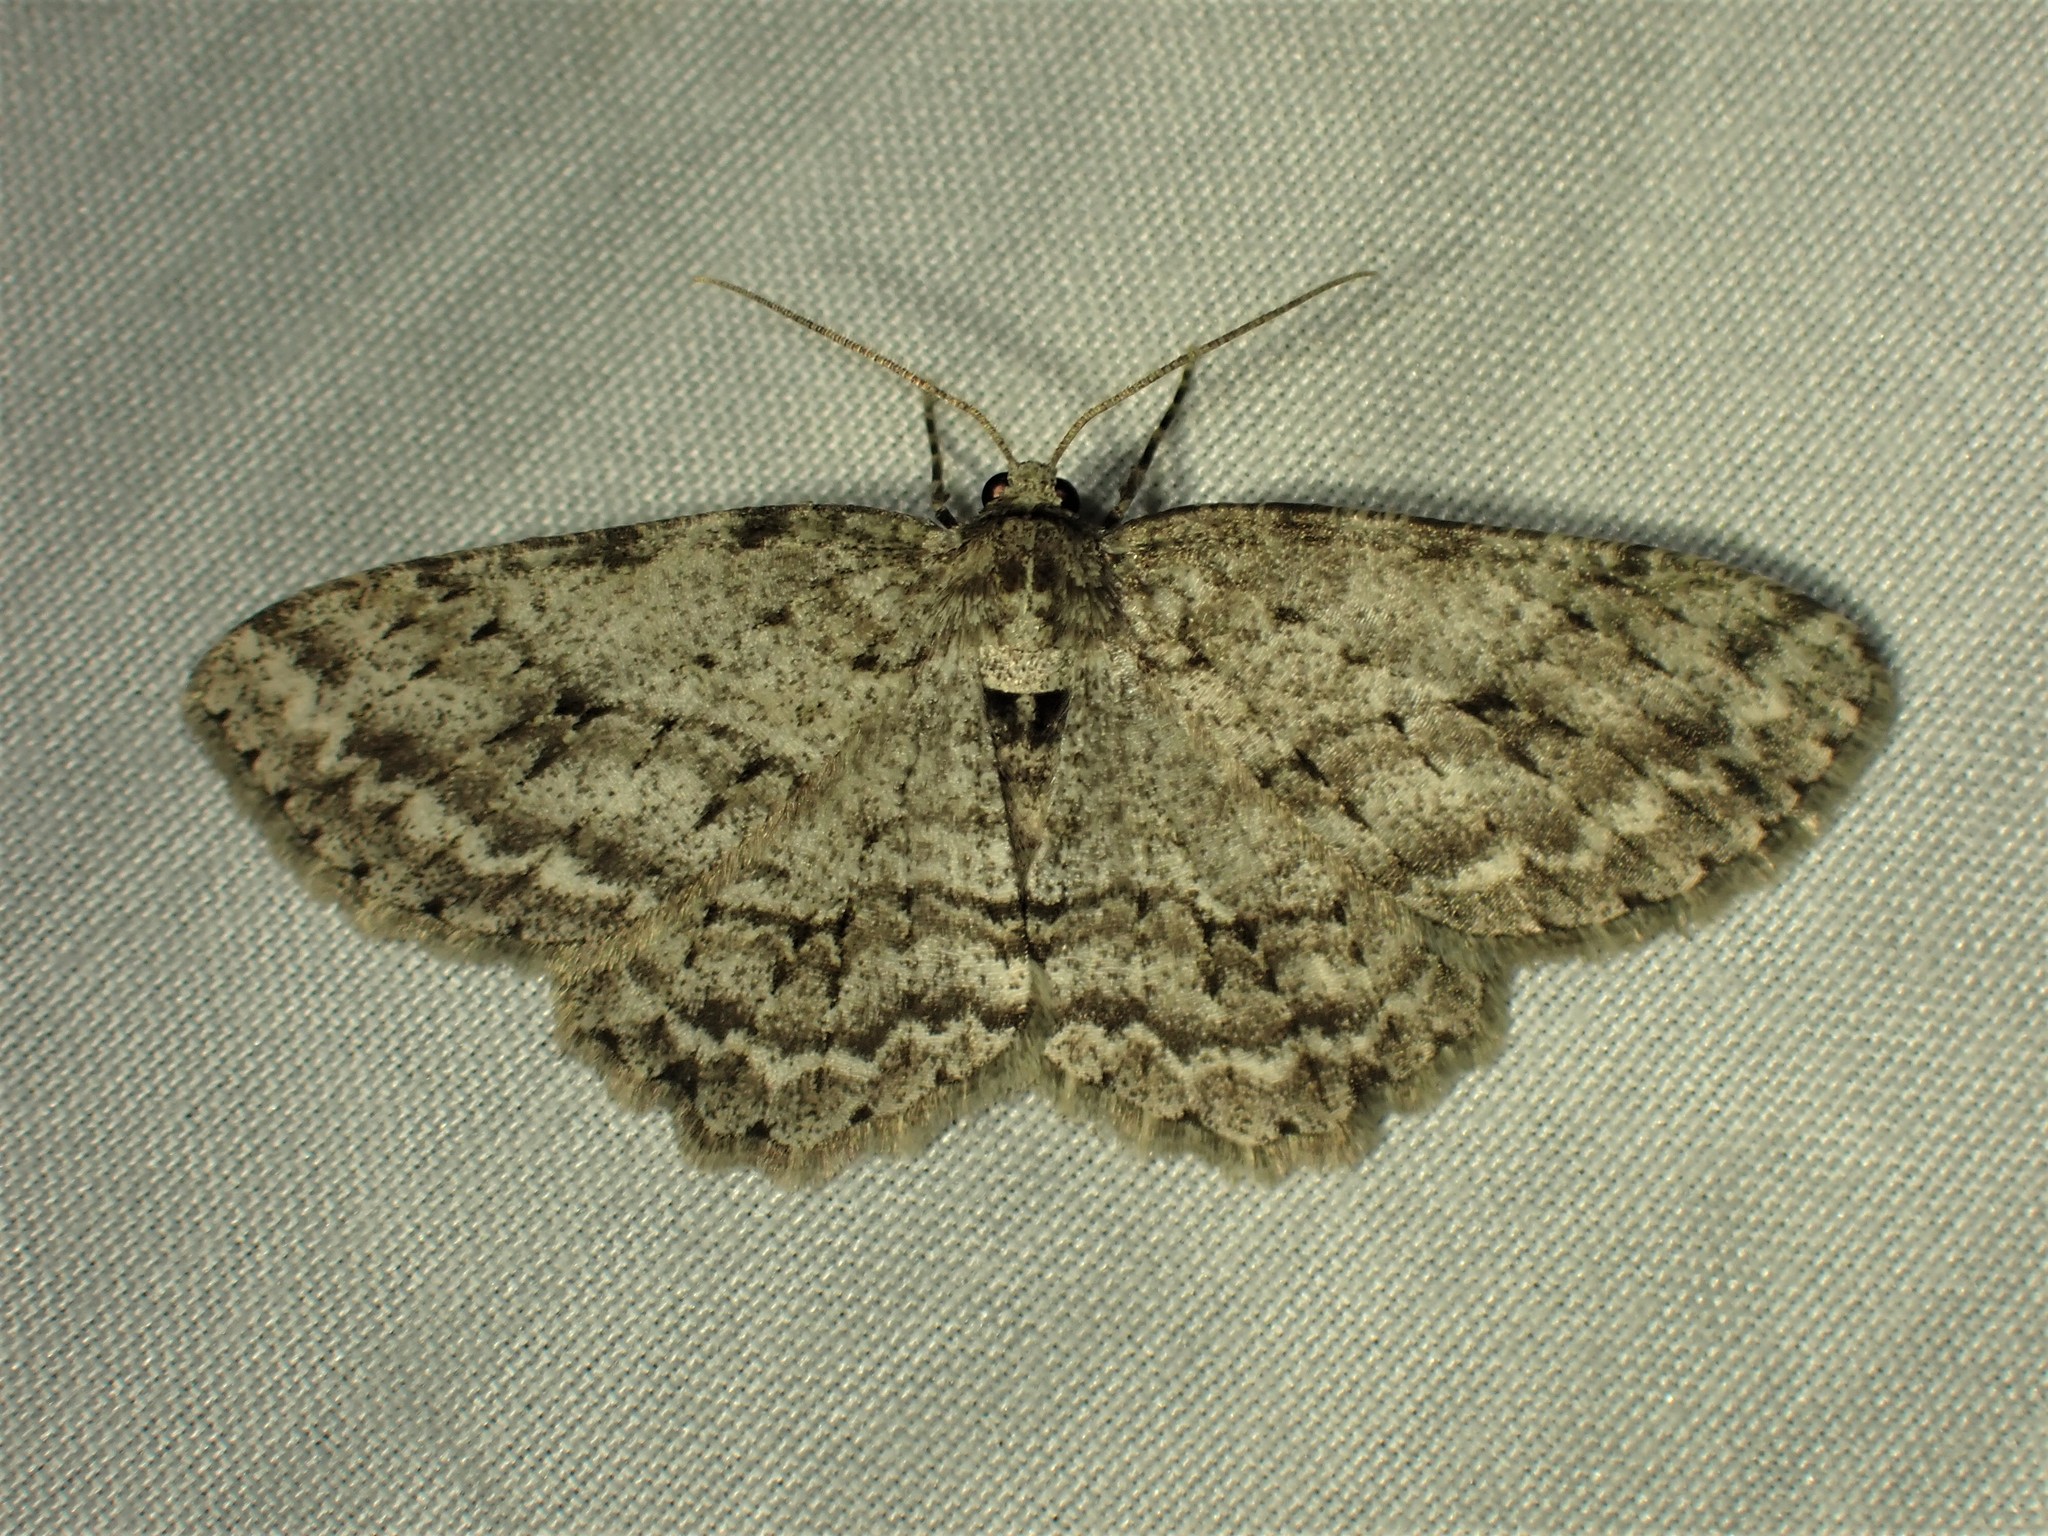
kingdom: Animalia
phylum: Arthropoda
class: Insecta
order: Lepidoptera
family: Geometridae
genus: Ectropis
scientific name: Ectropis crepuscularia
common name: Engrailed
